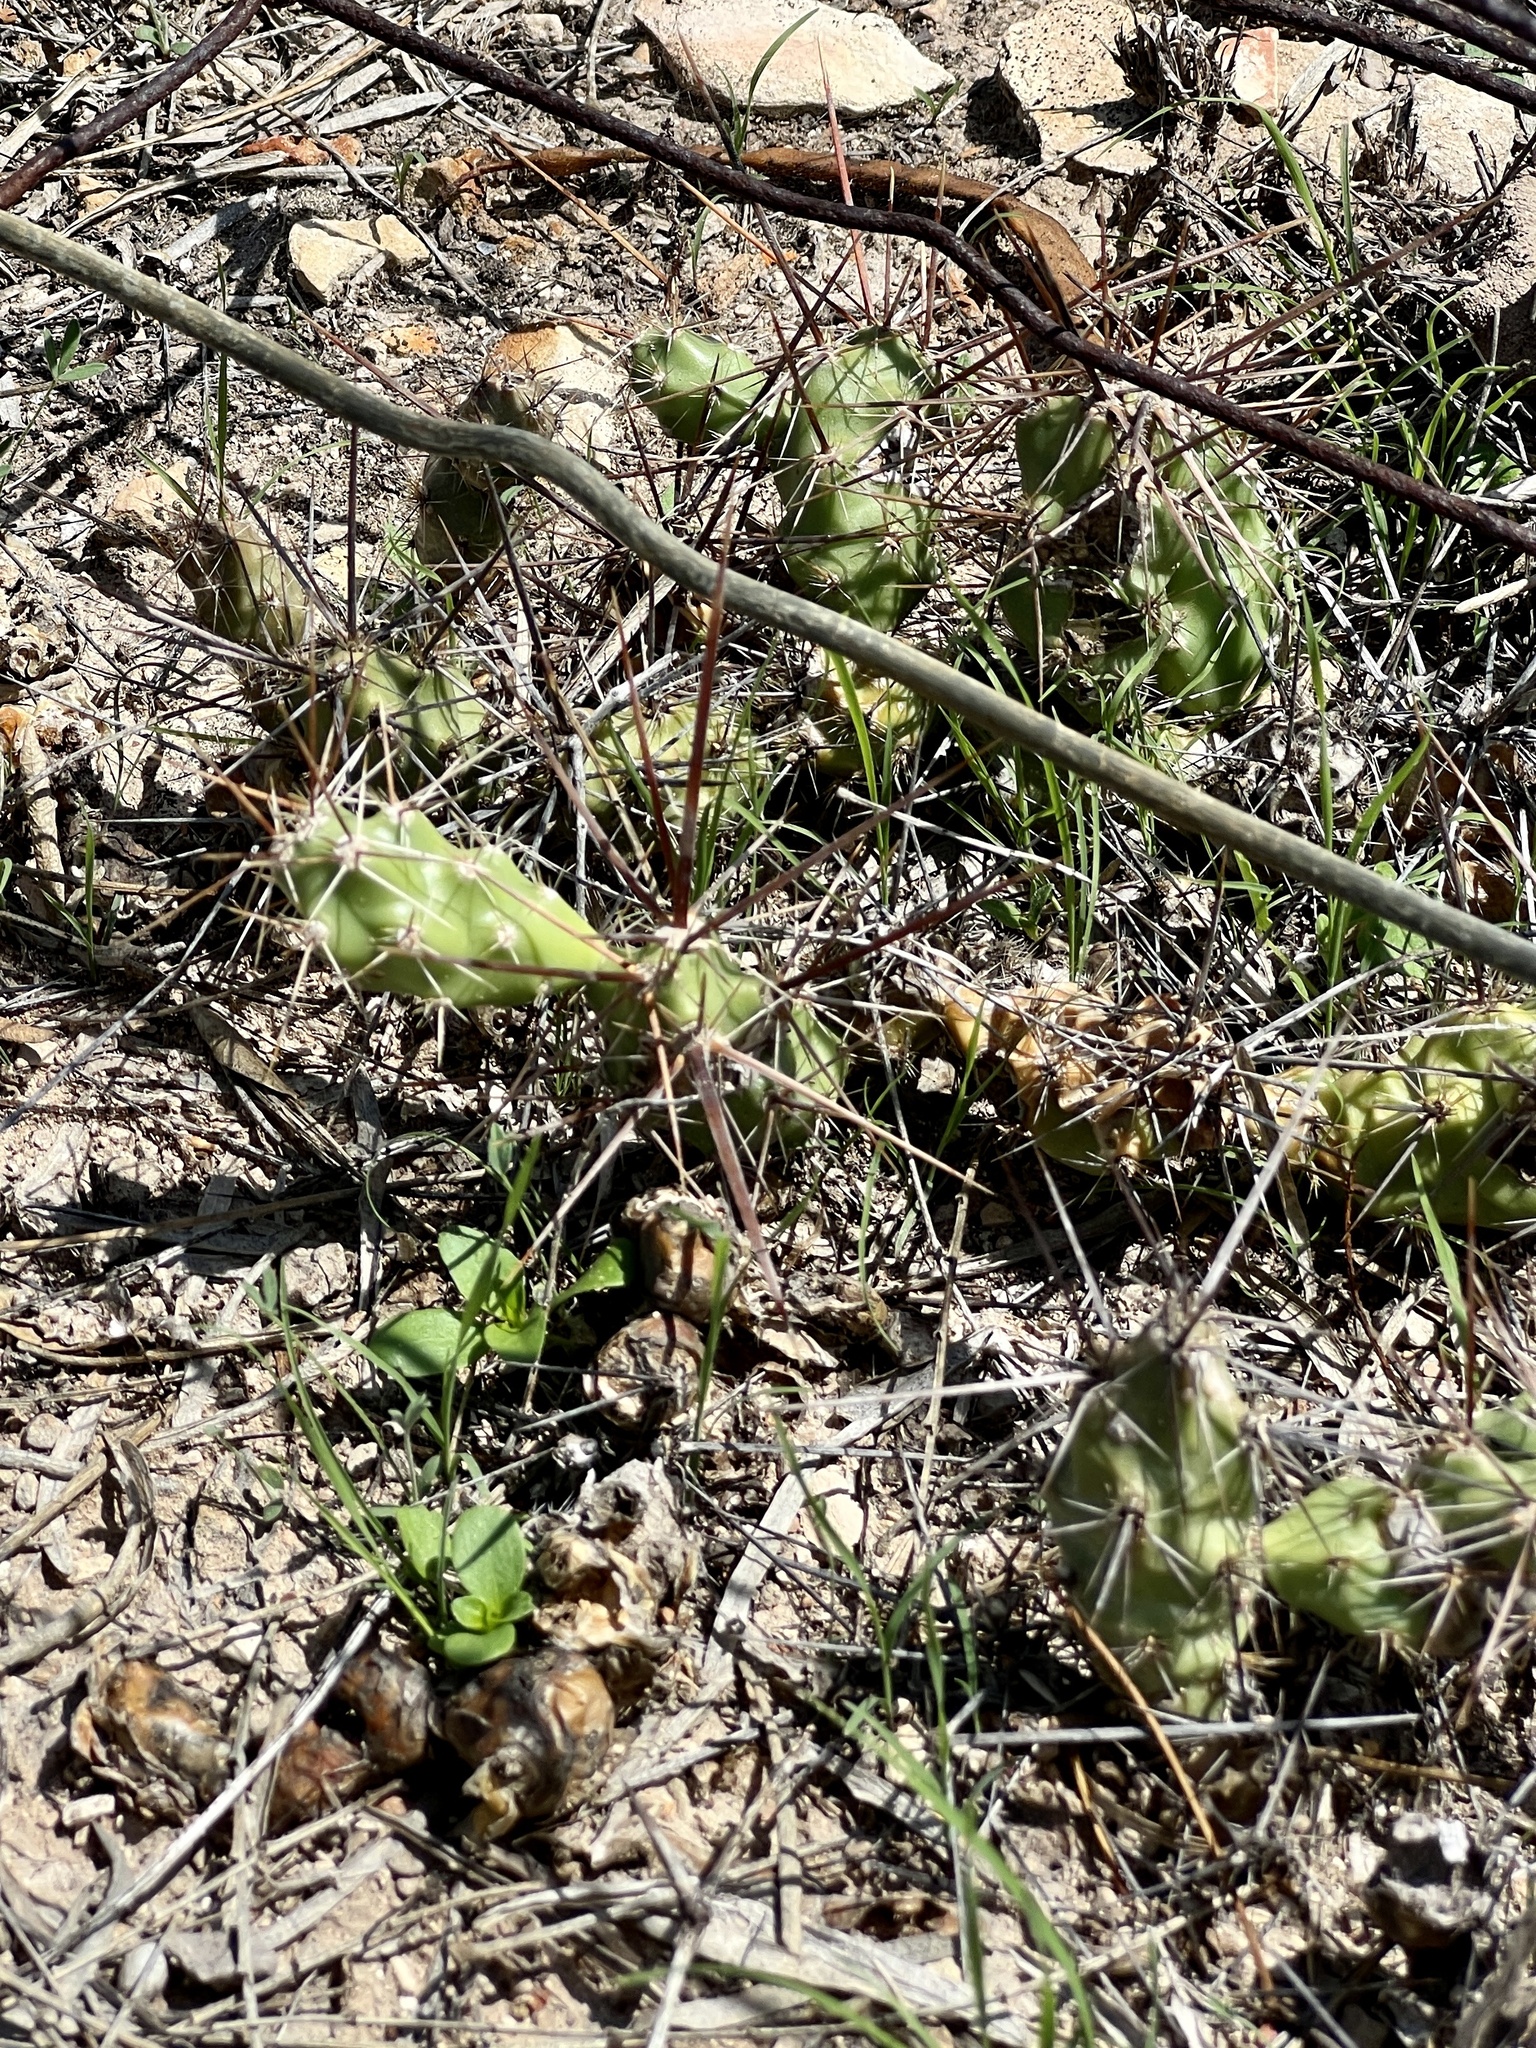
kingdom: Plantae
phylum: Tracheophyta
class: Magnoliopsida
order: Caryophyllales
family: Cactaceae
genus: Grusonia
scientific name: Grusonia schottii
